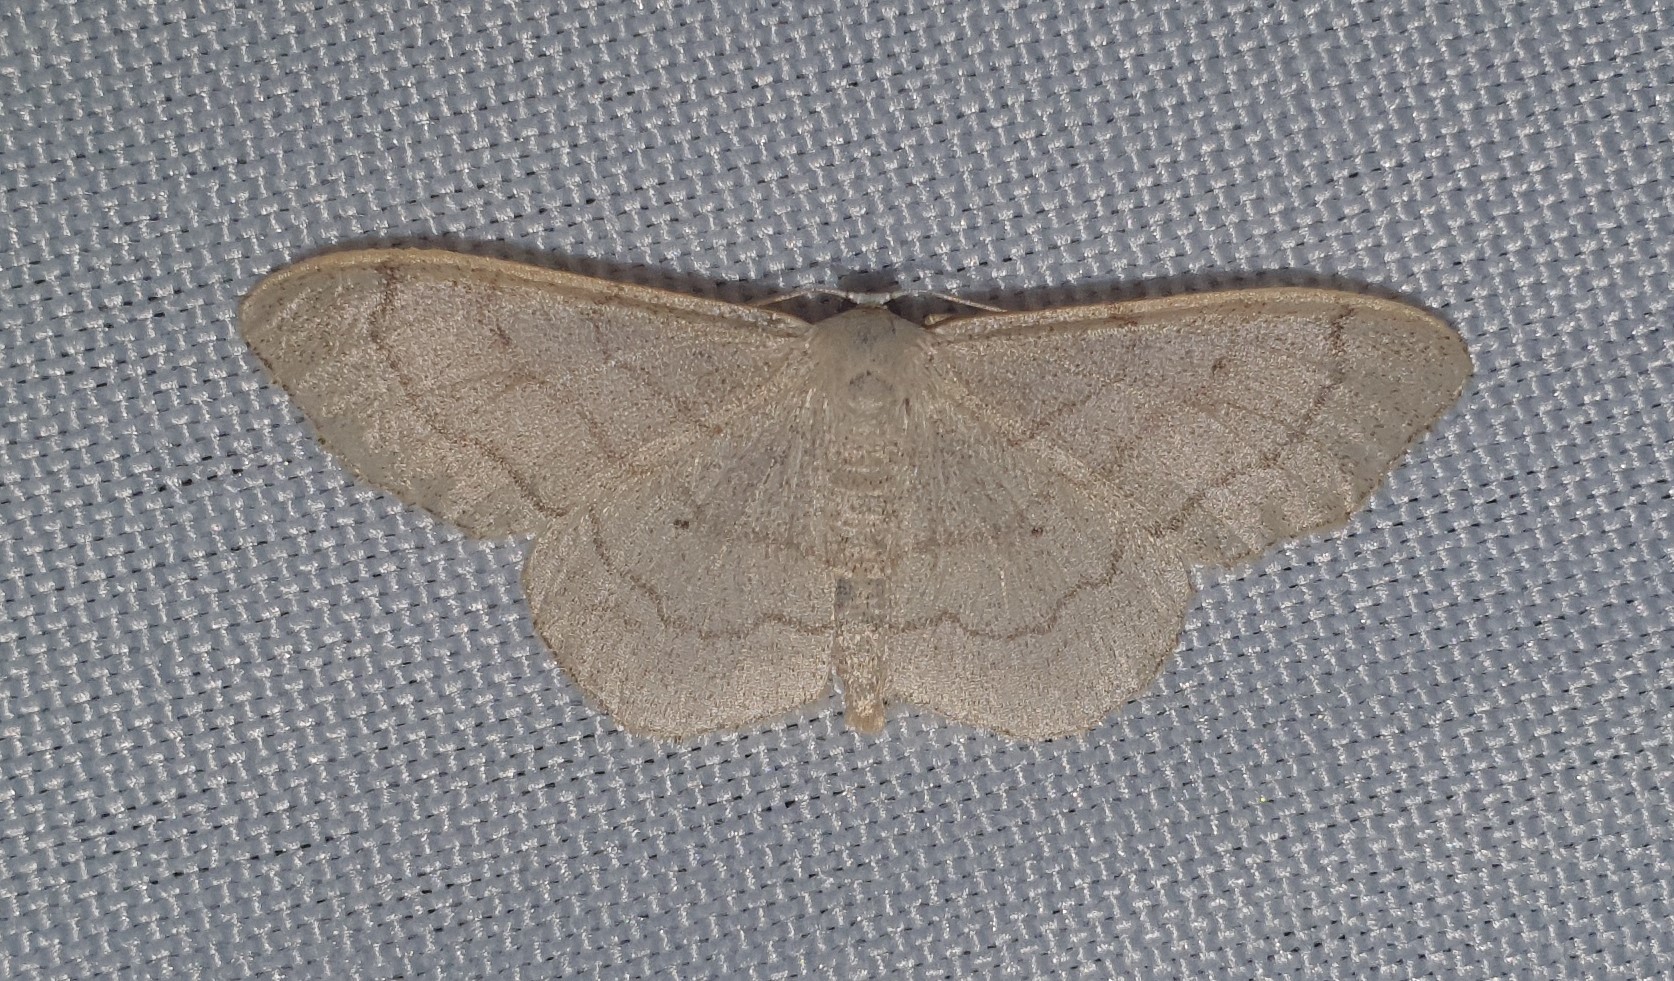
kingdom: Animalia
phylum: Arthropoda
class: Insecta
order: Lepidoptera
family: Geometridae
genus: Idaea
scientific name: Idaea aversata
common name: Riband wave
